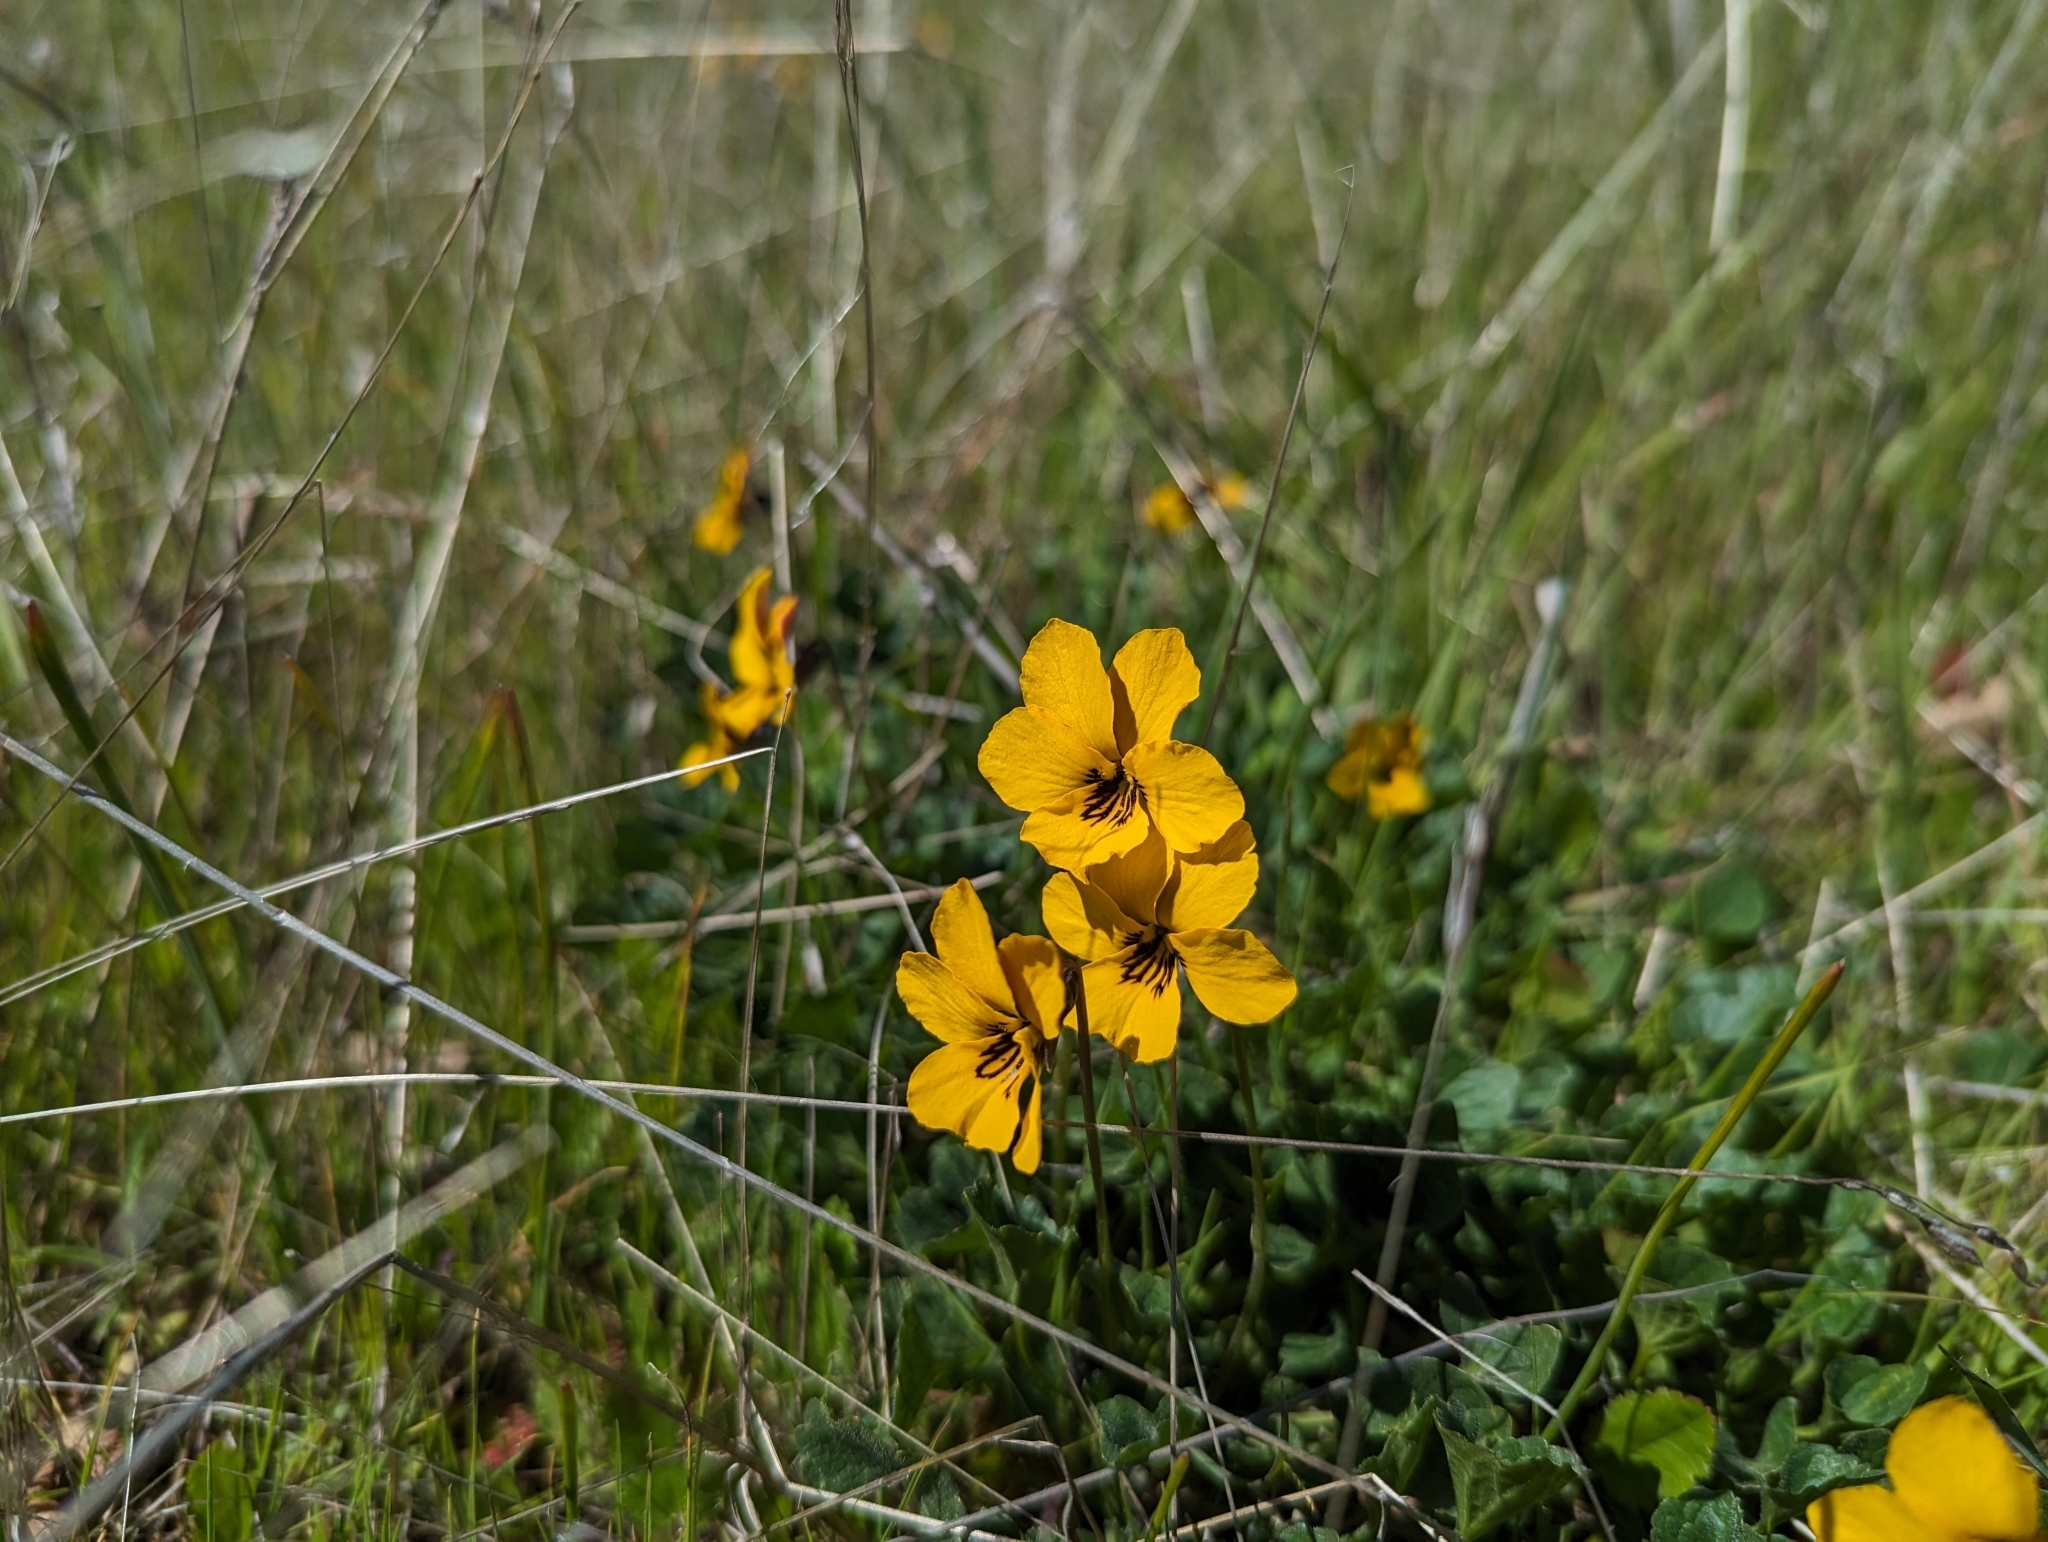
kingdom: Plantae
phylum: Tracheophyta
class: Magnoliopsida
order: Malpighiales
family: Violaceae
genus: Viola
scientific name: Viola pedunculata
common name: California golden violet
